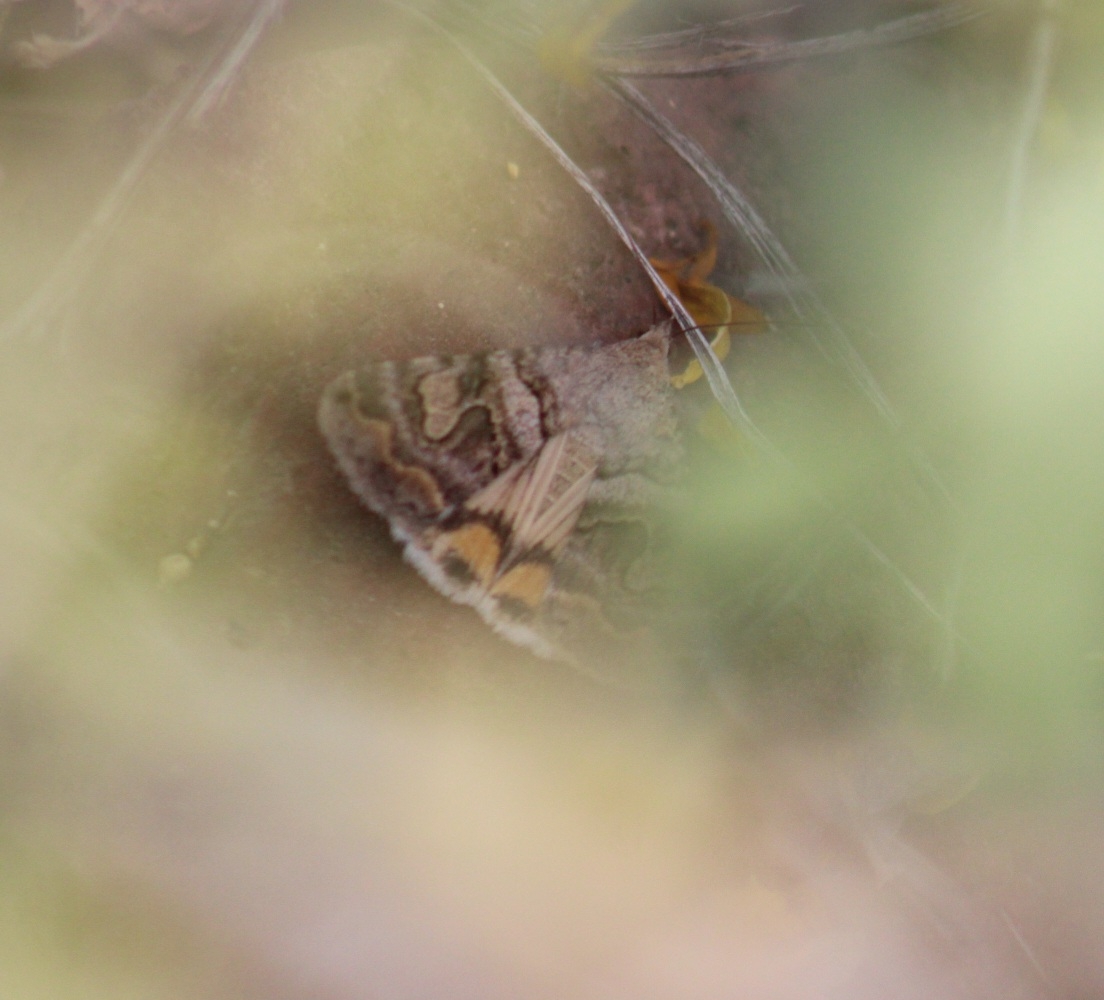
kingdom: Animalia
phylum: Arthropoda
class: Insecta
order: Lepidoptera
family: Erebidae
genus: Bulia
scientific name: Bulia deducta
